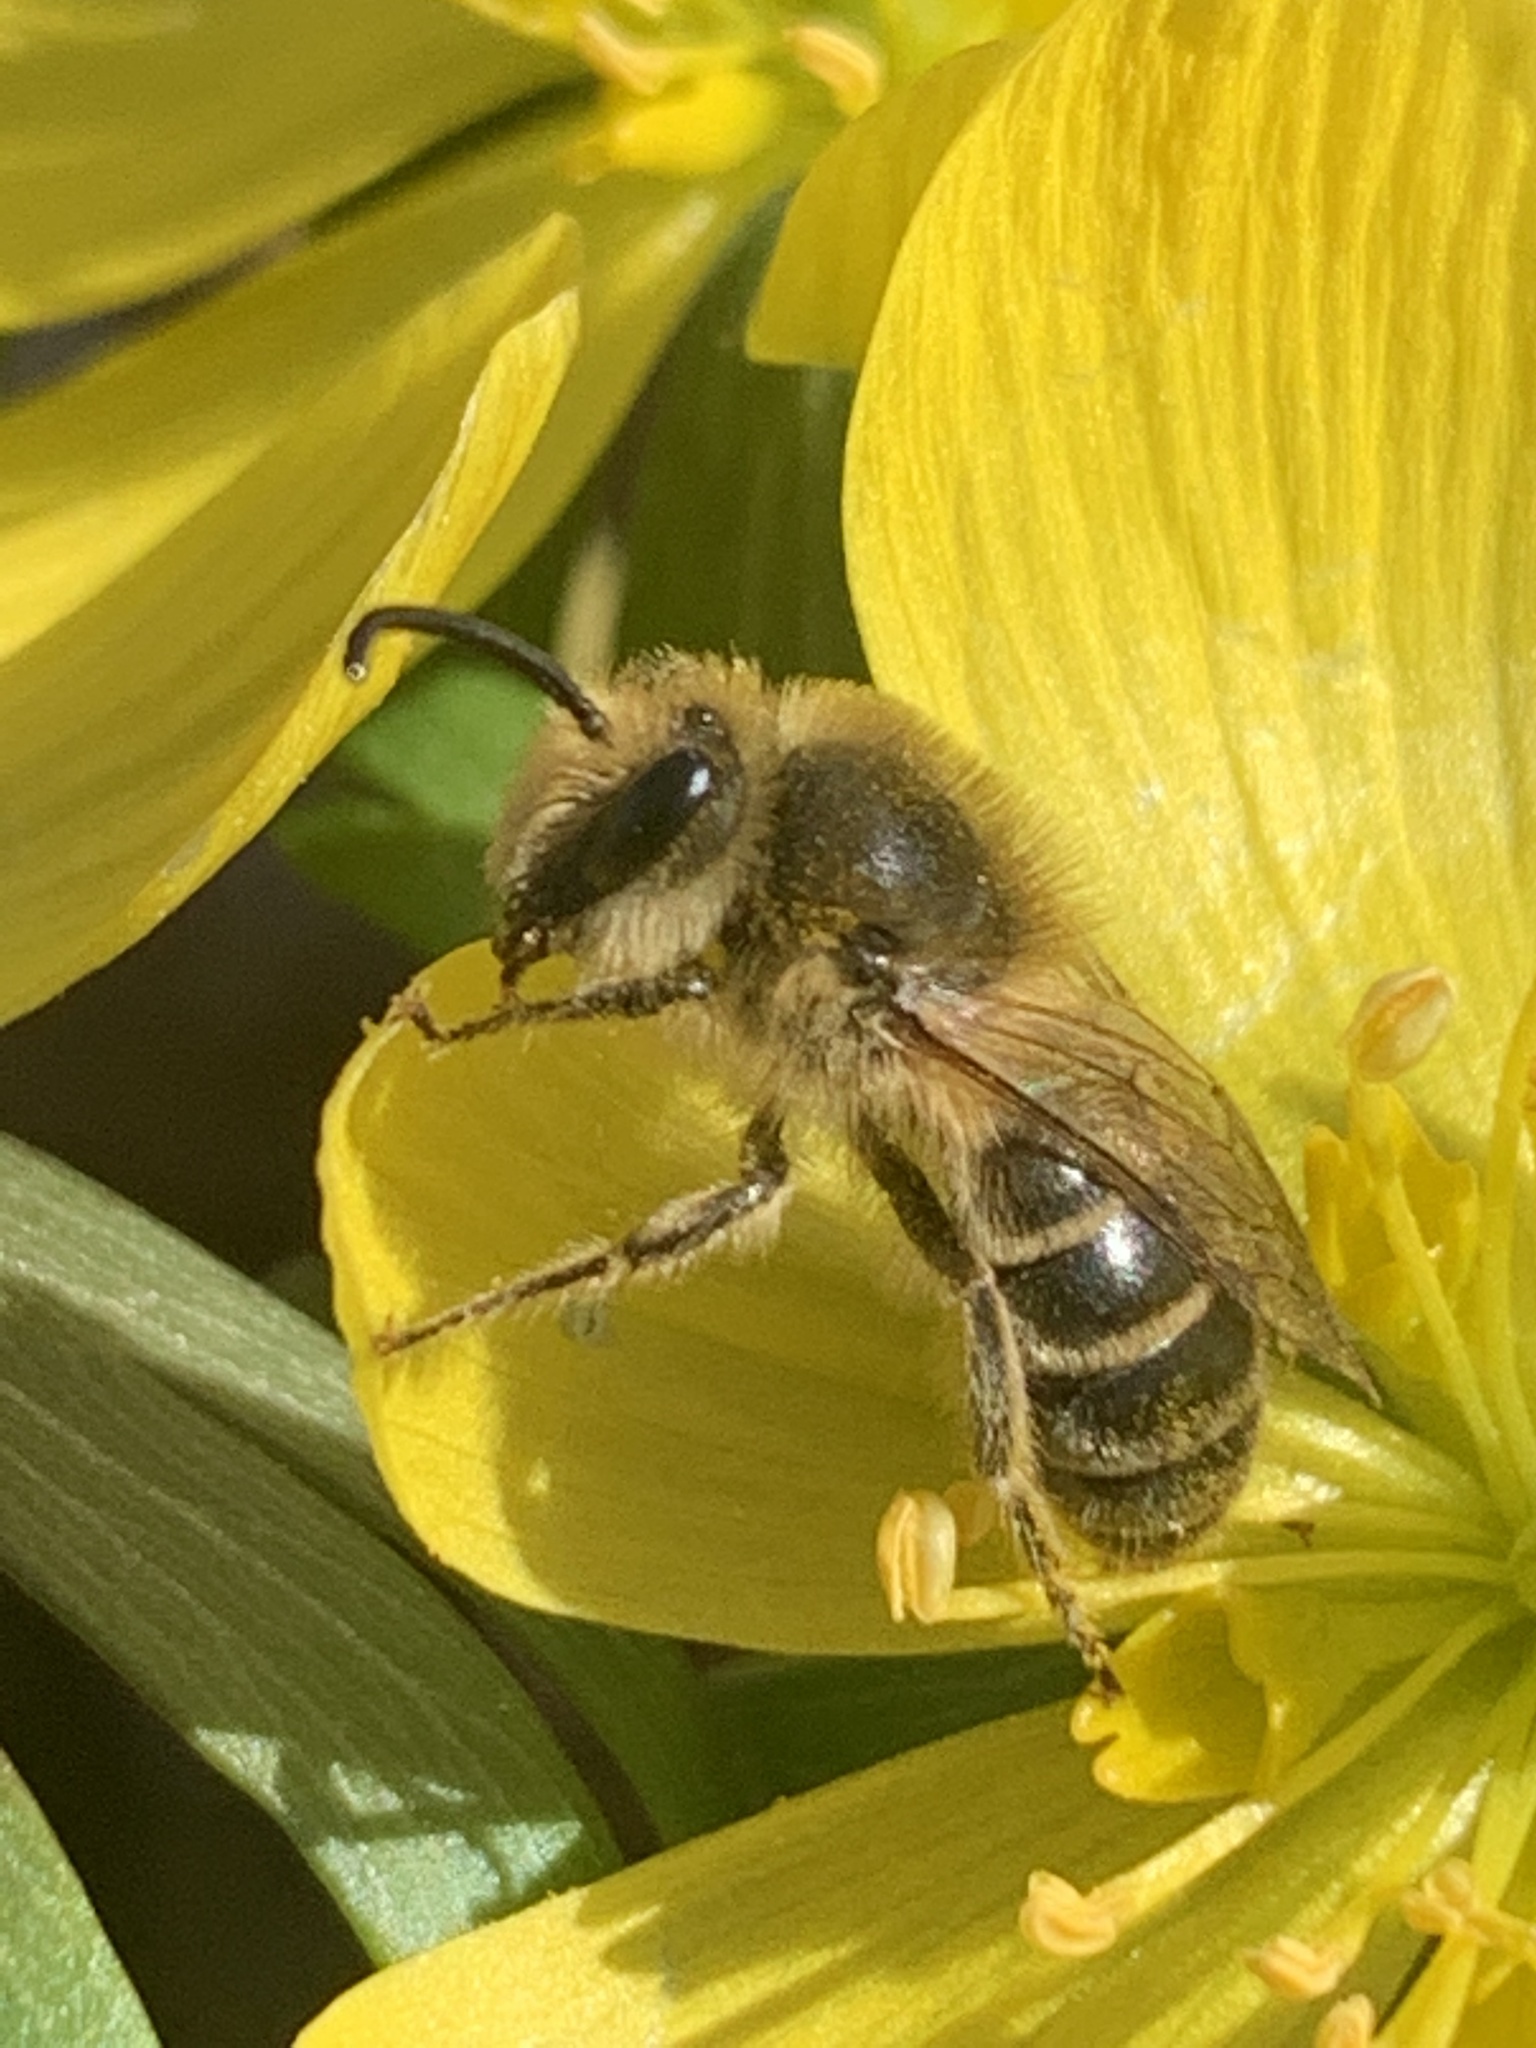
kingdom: Animalia
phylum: Arthropoda
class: Insecta
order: Hymenoptera
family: Colletidae
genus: Colletes
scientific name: Colletes inaequalis
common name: Unequal cellophane bee
